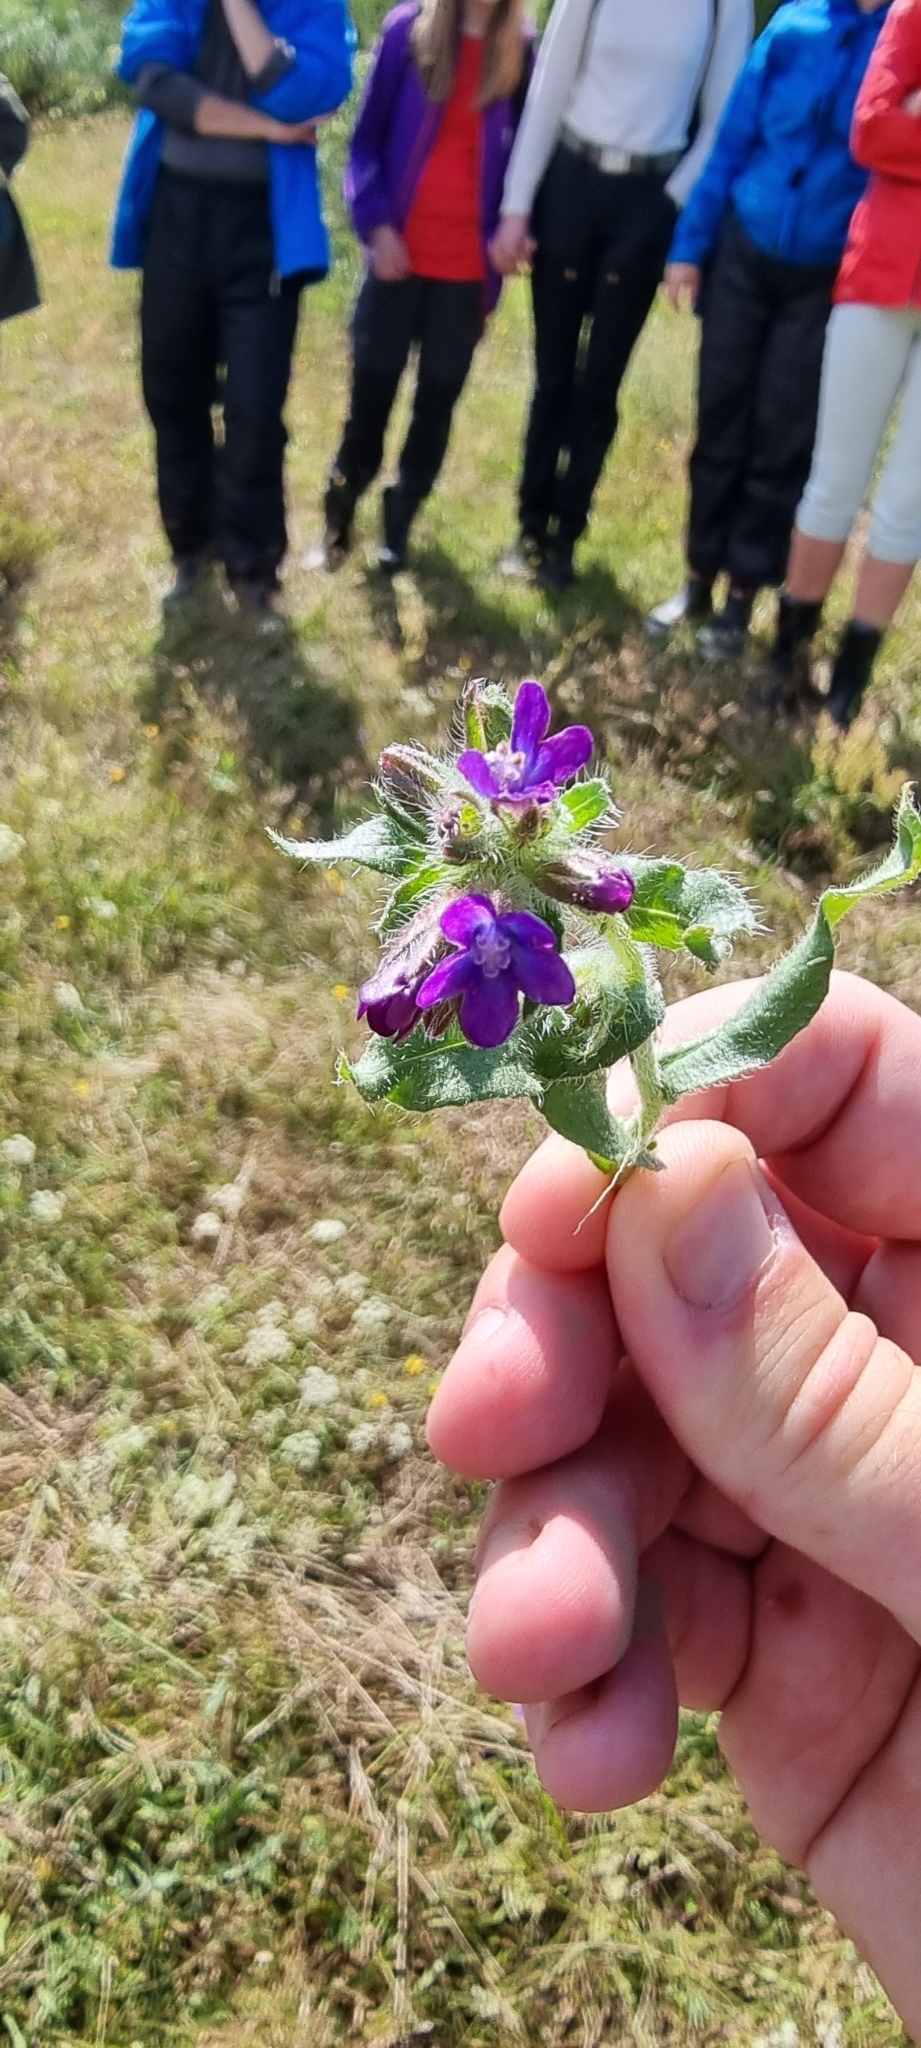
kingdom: Plantae
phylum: Tracheophyta
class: Magnoliopsida
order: Boraginales
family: Boraginaceae
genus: Anchusa
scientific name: Anchusa officinalis
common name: Alkanet
